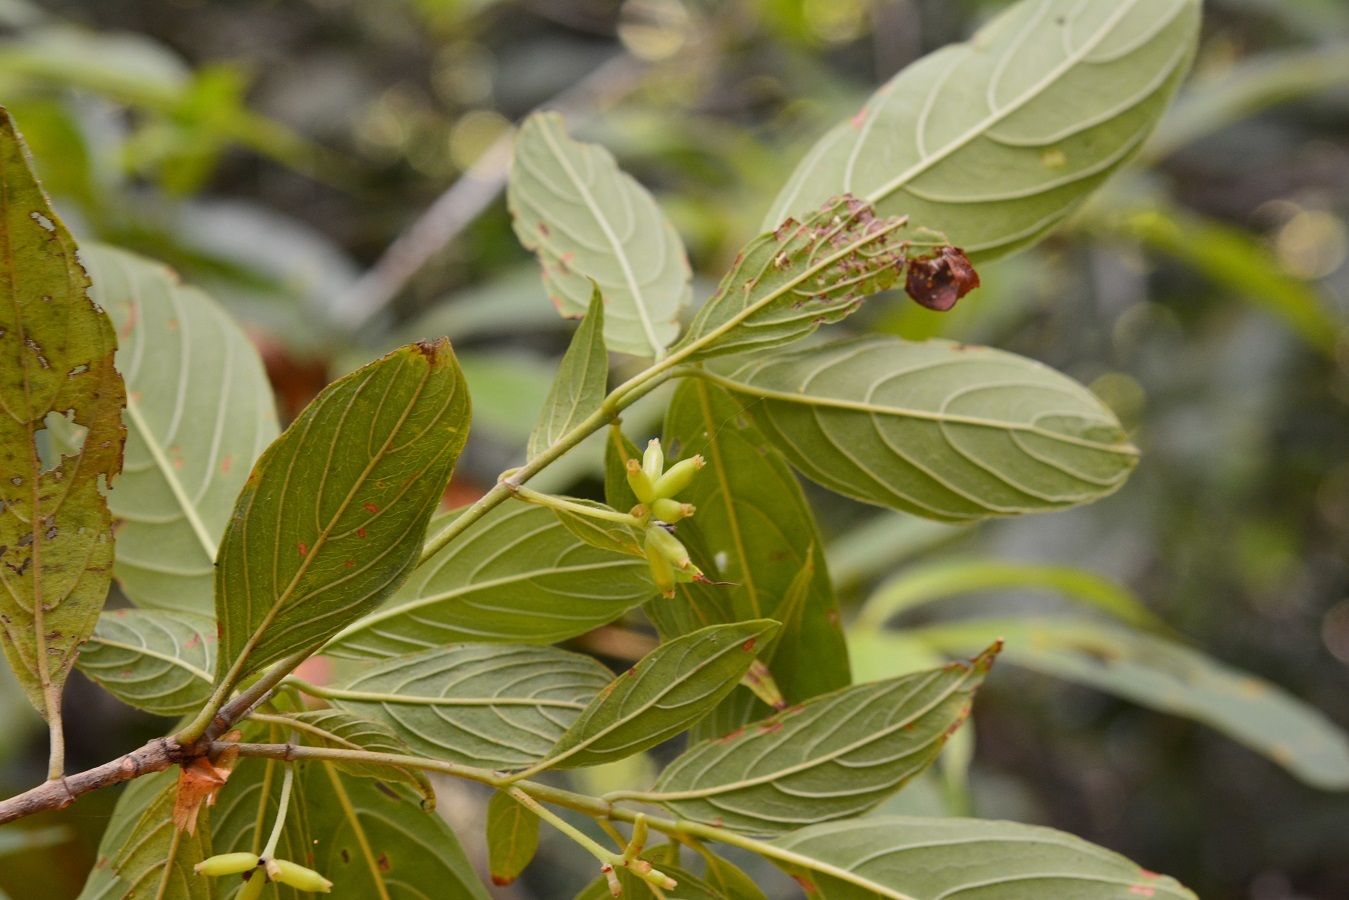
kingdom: Plantae
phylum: Tracheophyta
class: Magnoliopsida
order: Gentianales
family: Rubiaceae
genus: Arachnothryx
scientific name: Arachnothryx chiapensis
